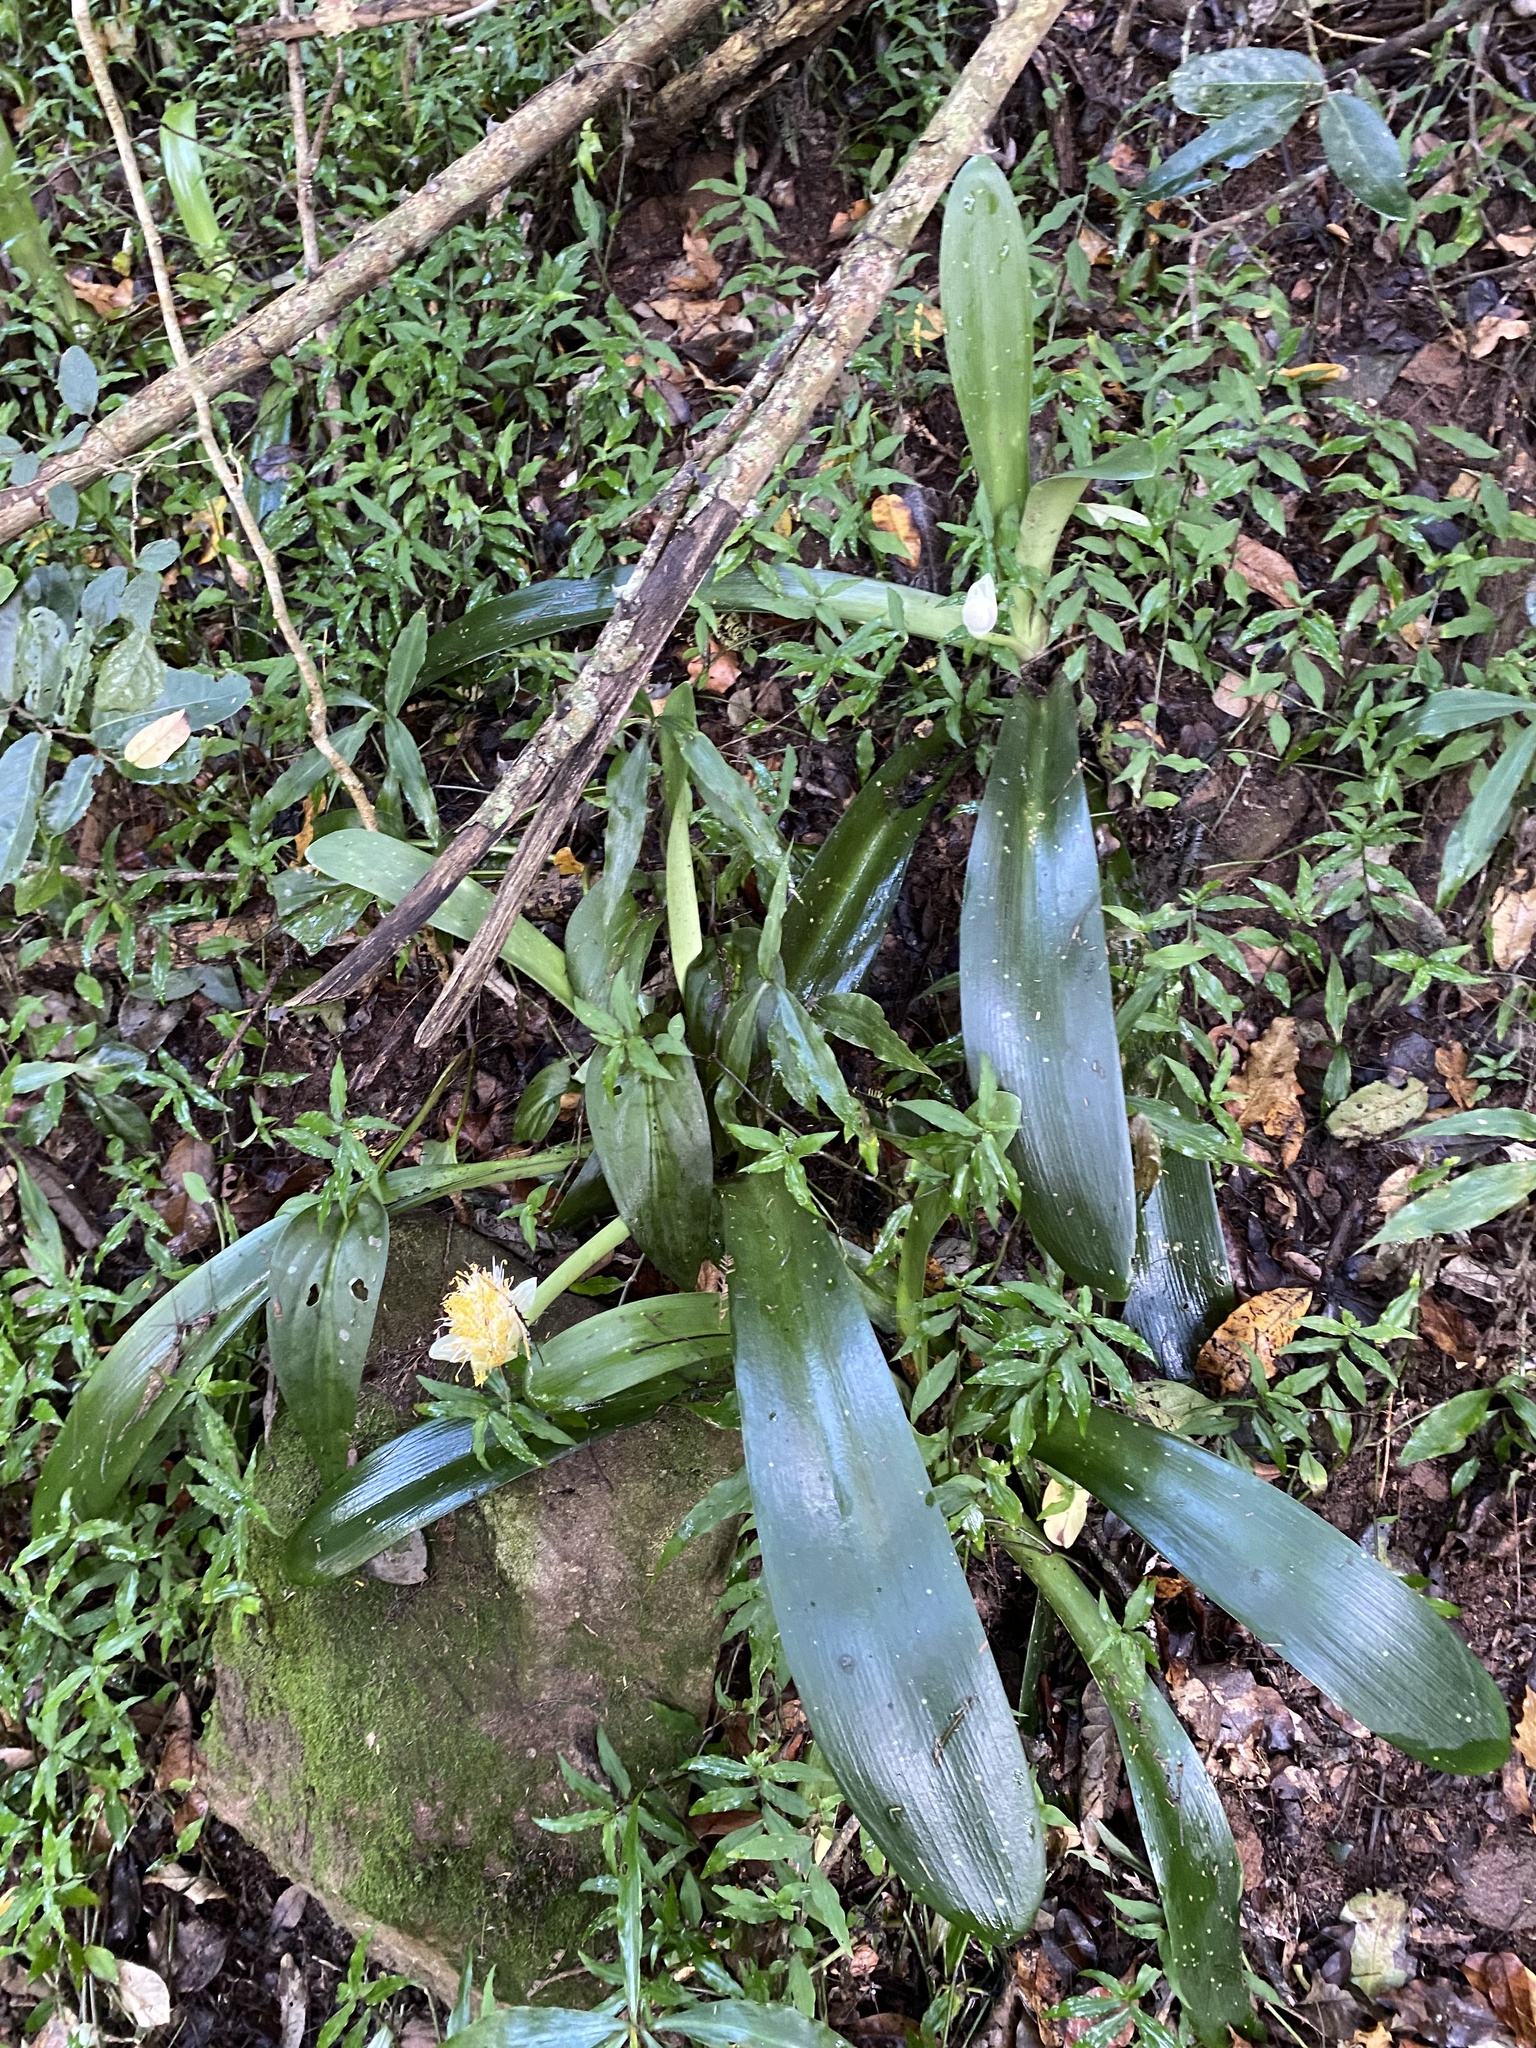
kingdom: Plantae
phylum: Tracheophyta
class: Liliopsida
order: Asparagales
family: Amaryllidaceae
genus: Haemanthus
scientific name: Haemanthus albiflos
